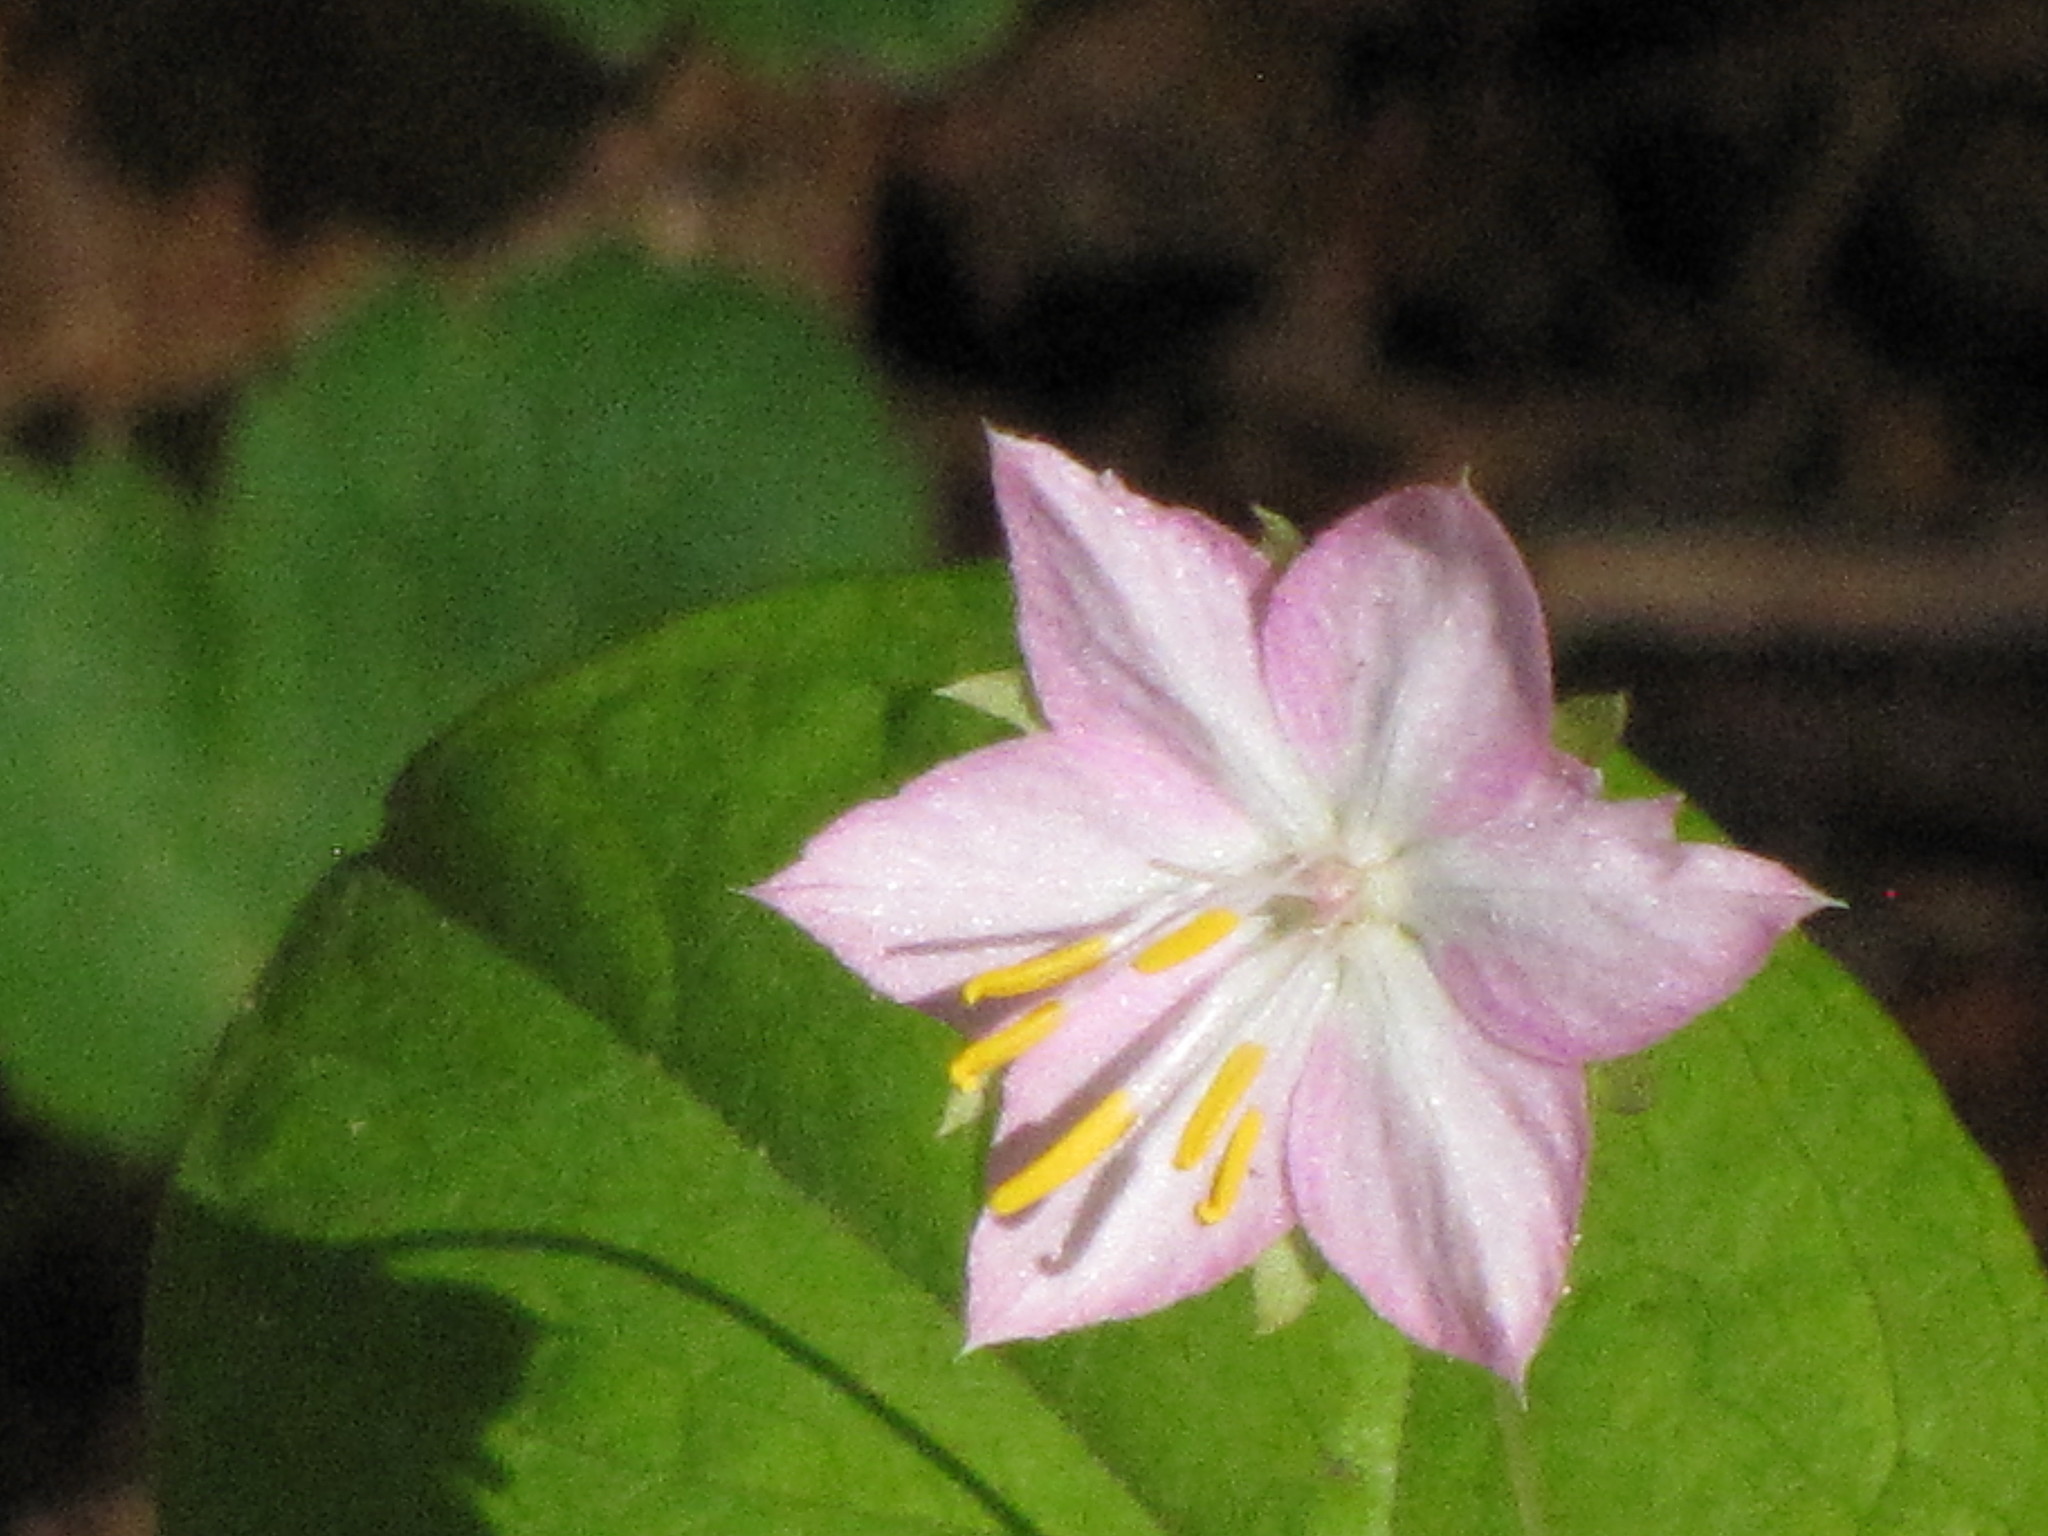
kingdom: Plantae
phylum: Tracheophyta
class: Magnoliopsida
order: Ericales
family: Primulaceae
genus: Lysimachia
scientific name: Lysimachia latifolia
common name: Pacific starflower
